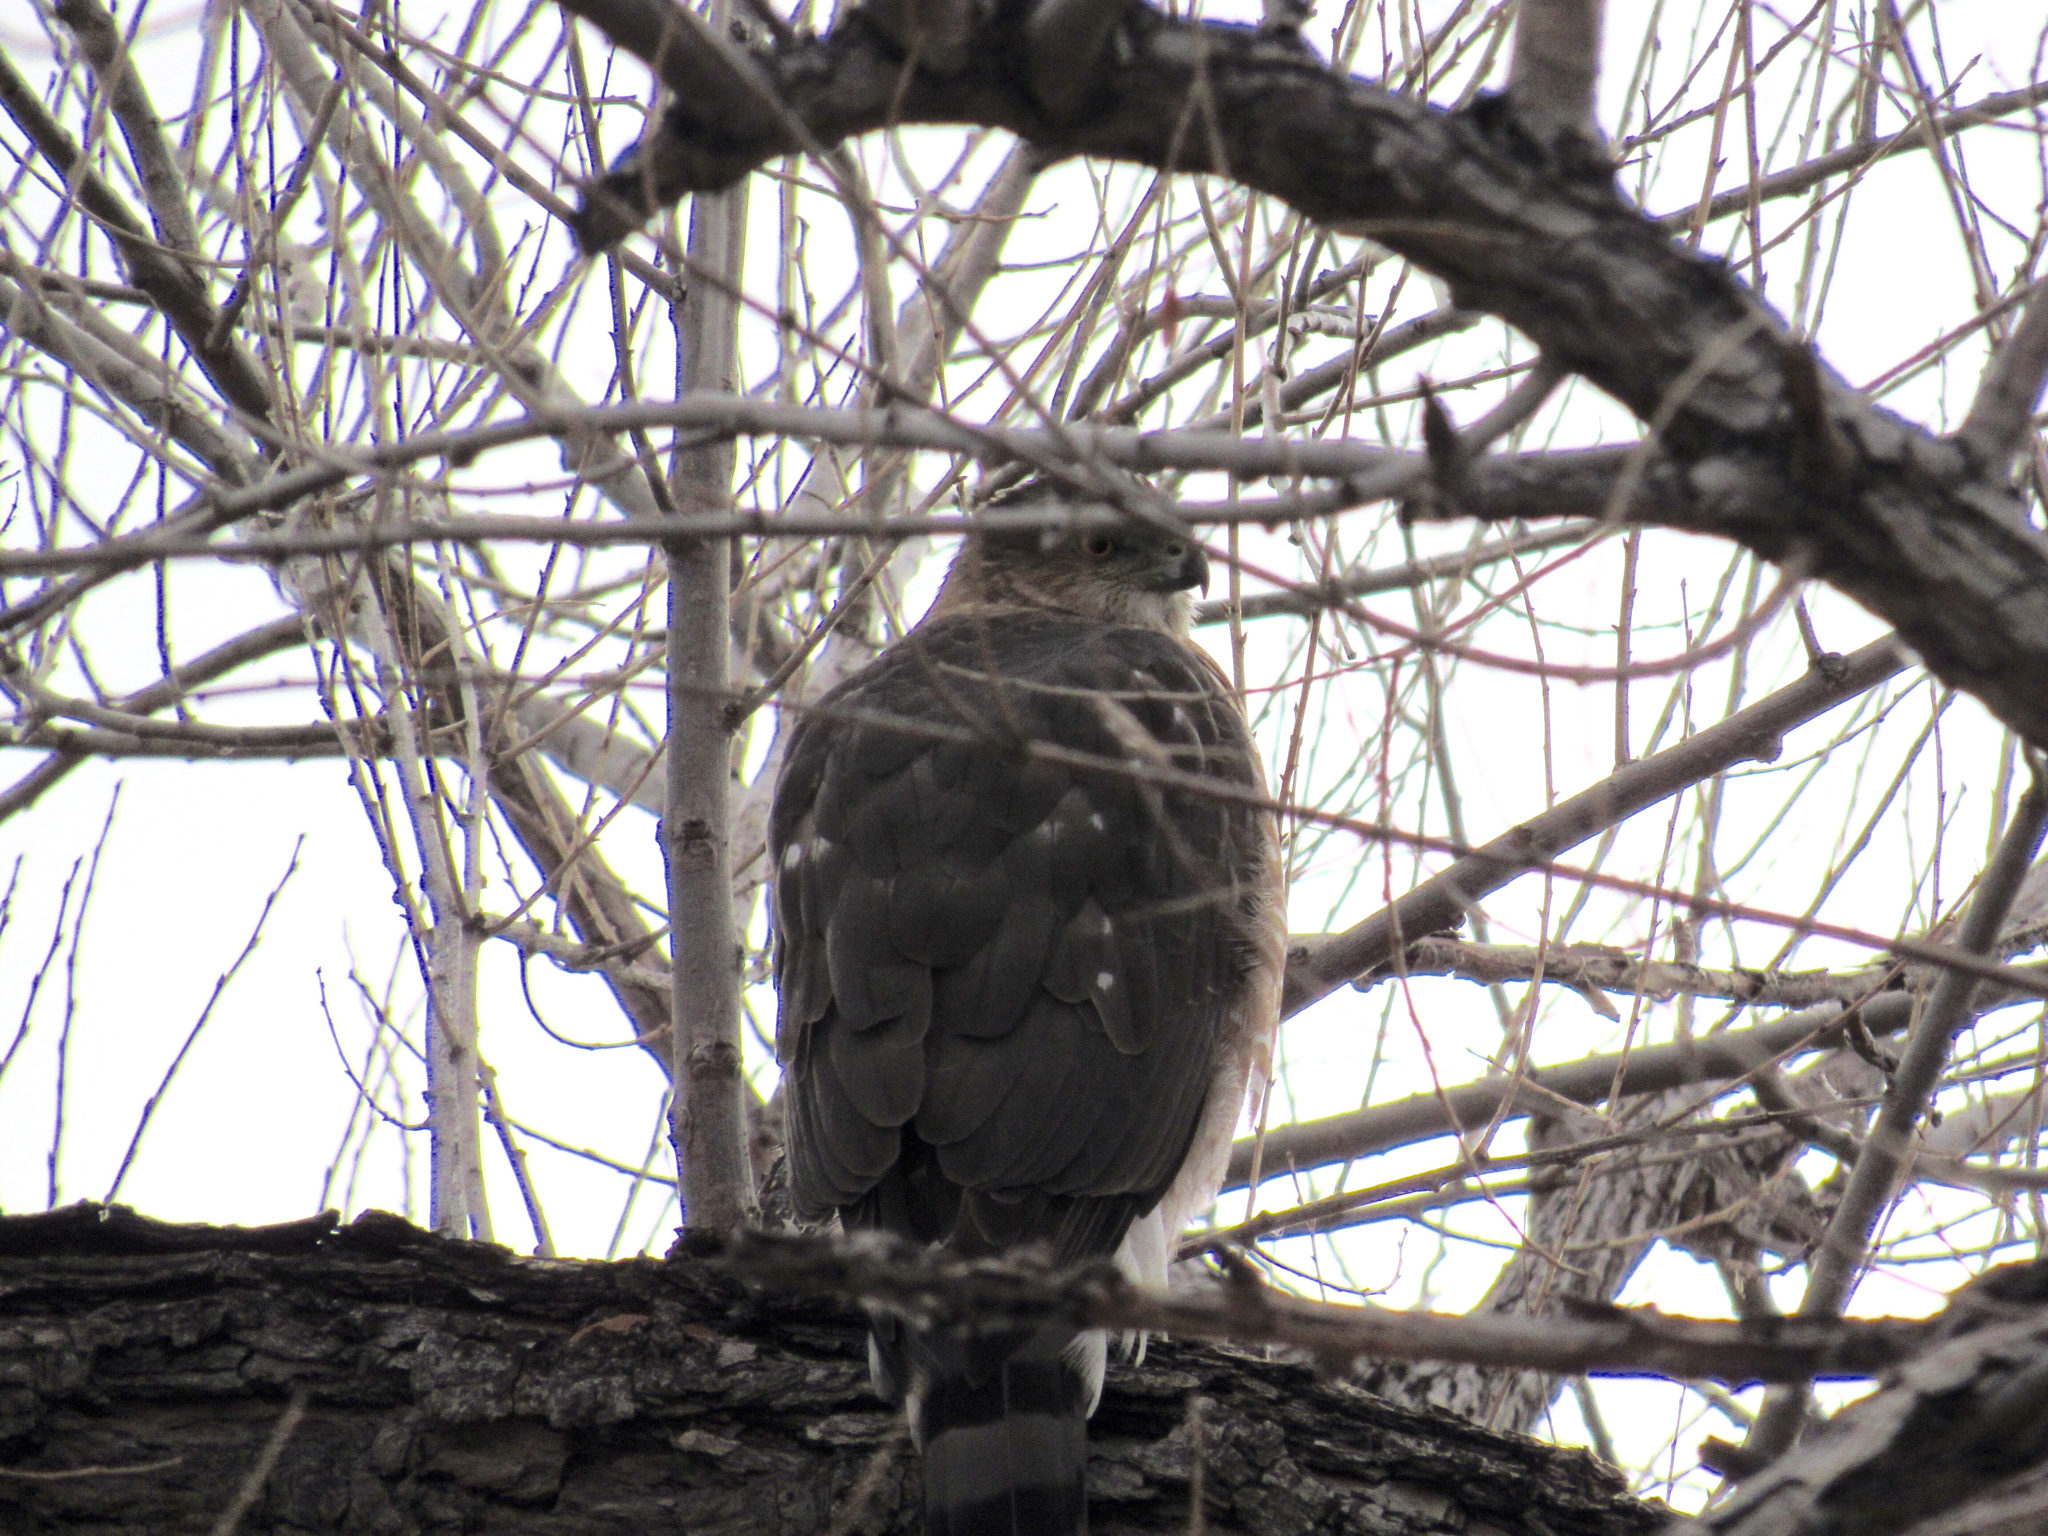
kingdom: Animalia
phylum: Chordata
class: Aves
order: Accipitriformes
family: Accipitridae
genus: Accipiter
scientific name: Accipiter cooperii
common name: Cooper's hawk
